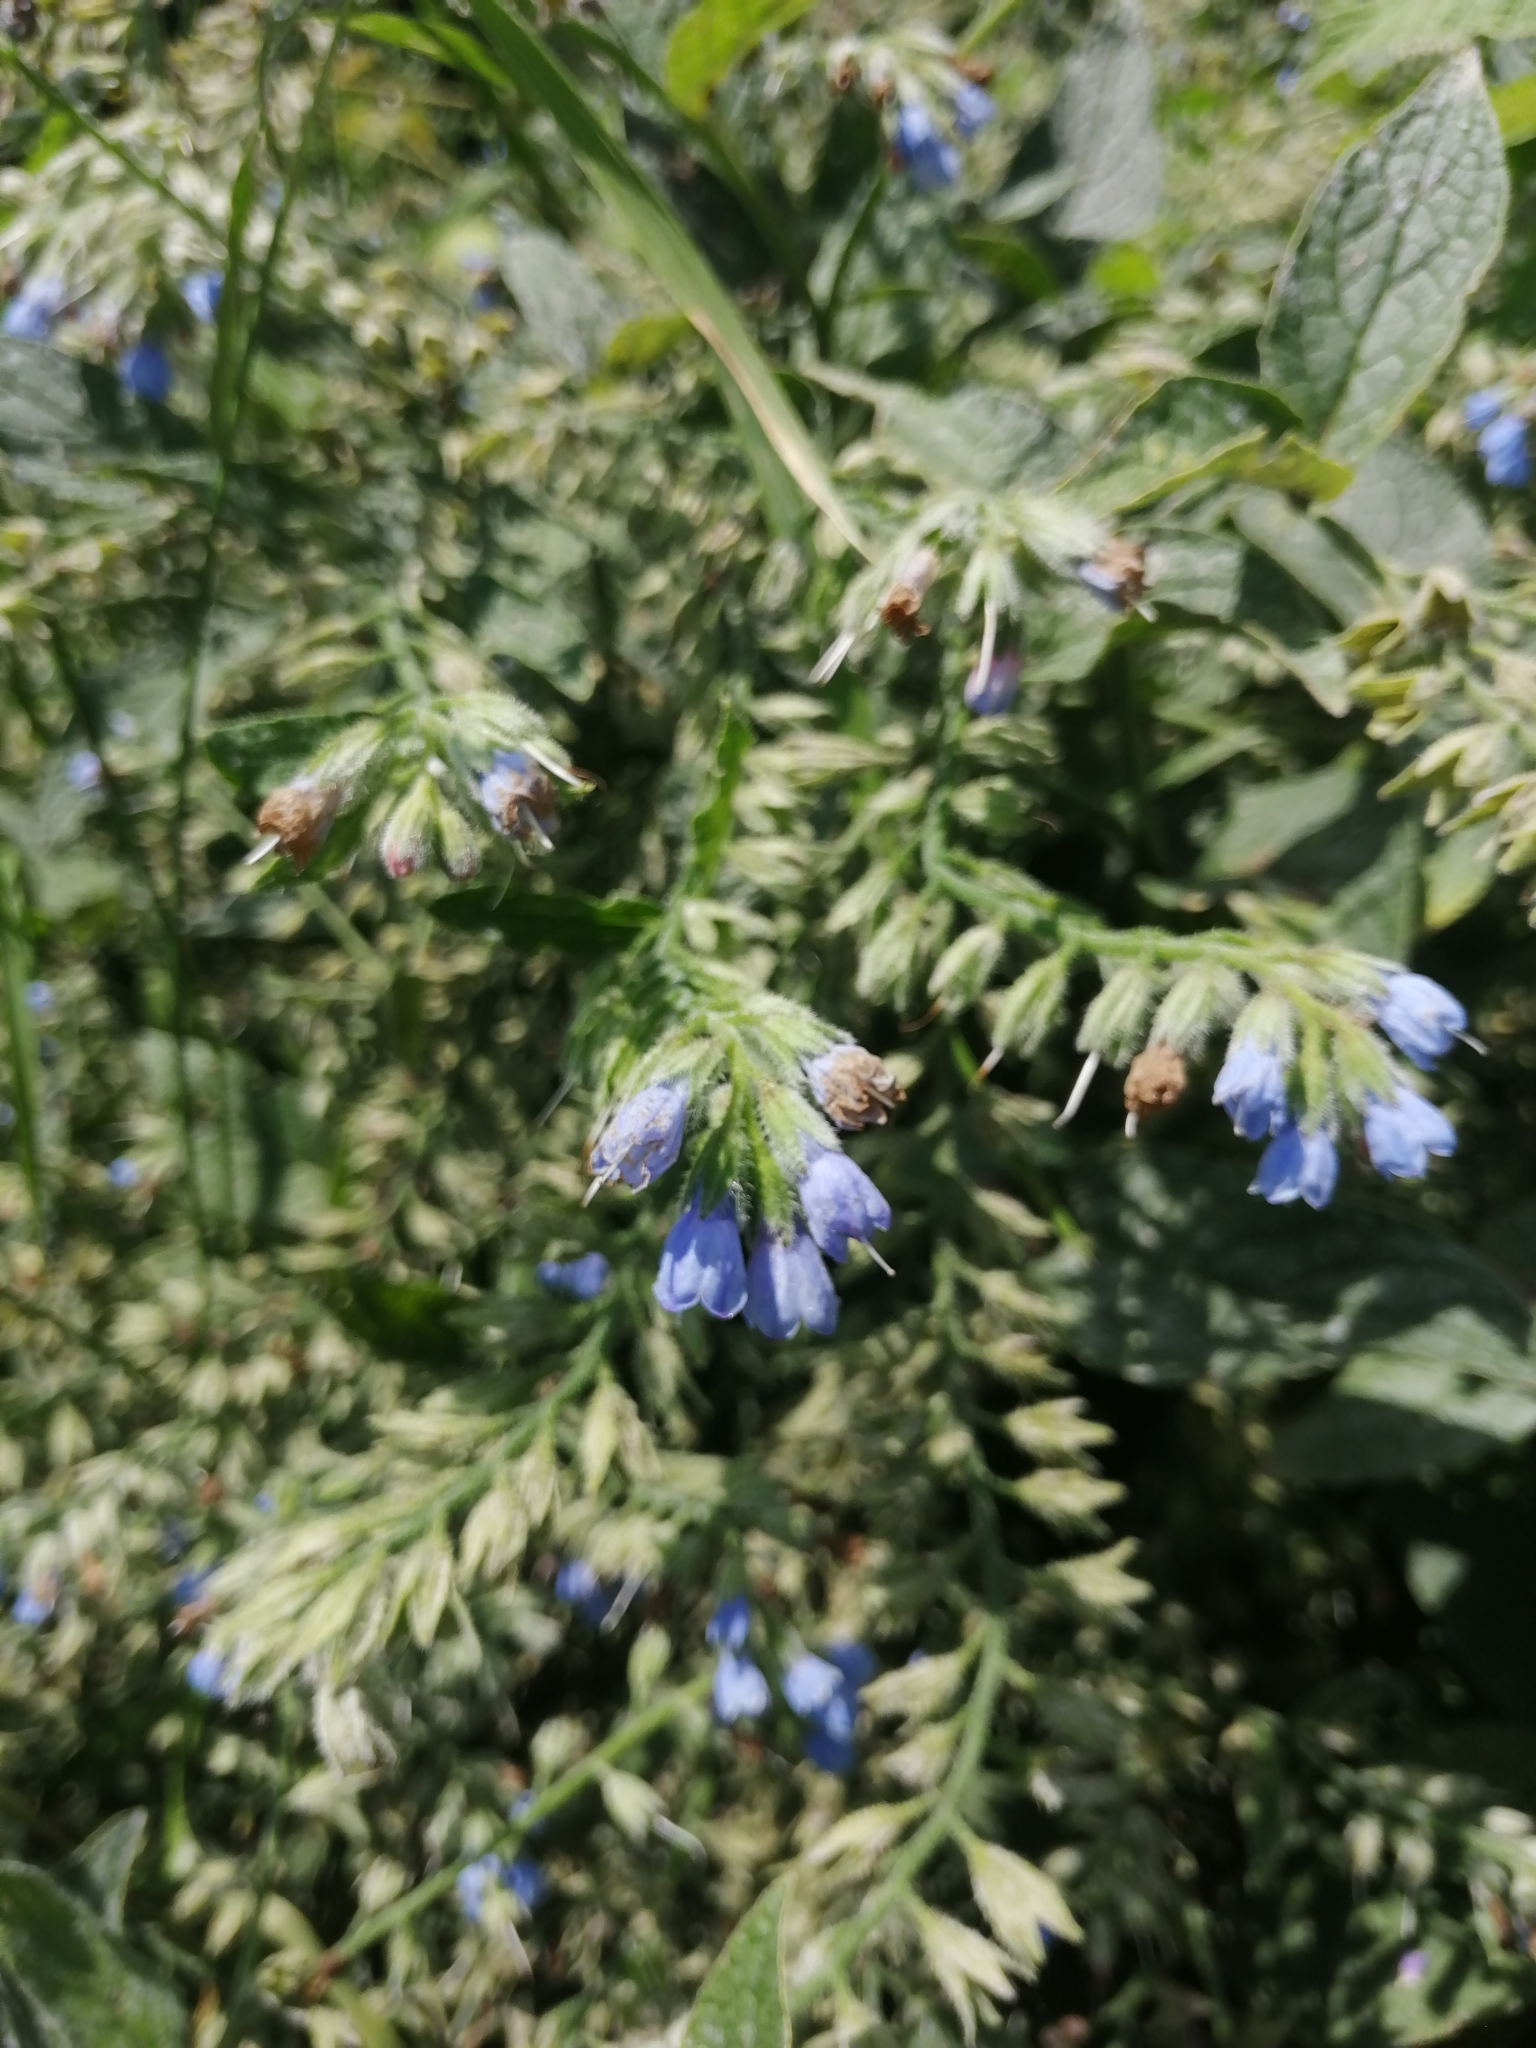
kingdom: Plantae
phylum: Tracheophyta
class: Magnoliopsida
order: Boraginales
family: Boraginaceae
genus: Symphytum
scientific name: Symphytum caucasicum
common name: Caucasian comfrey
